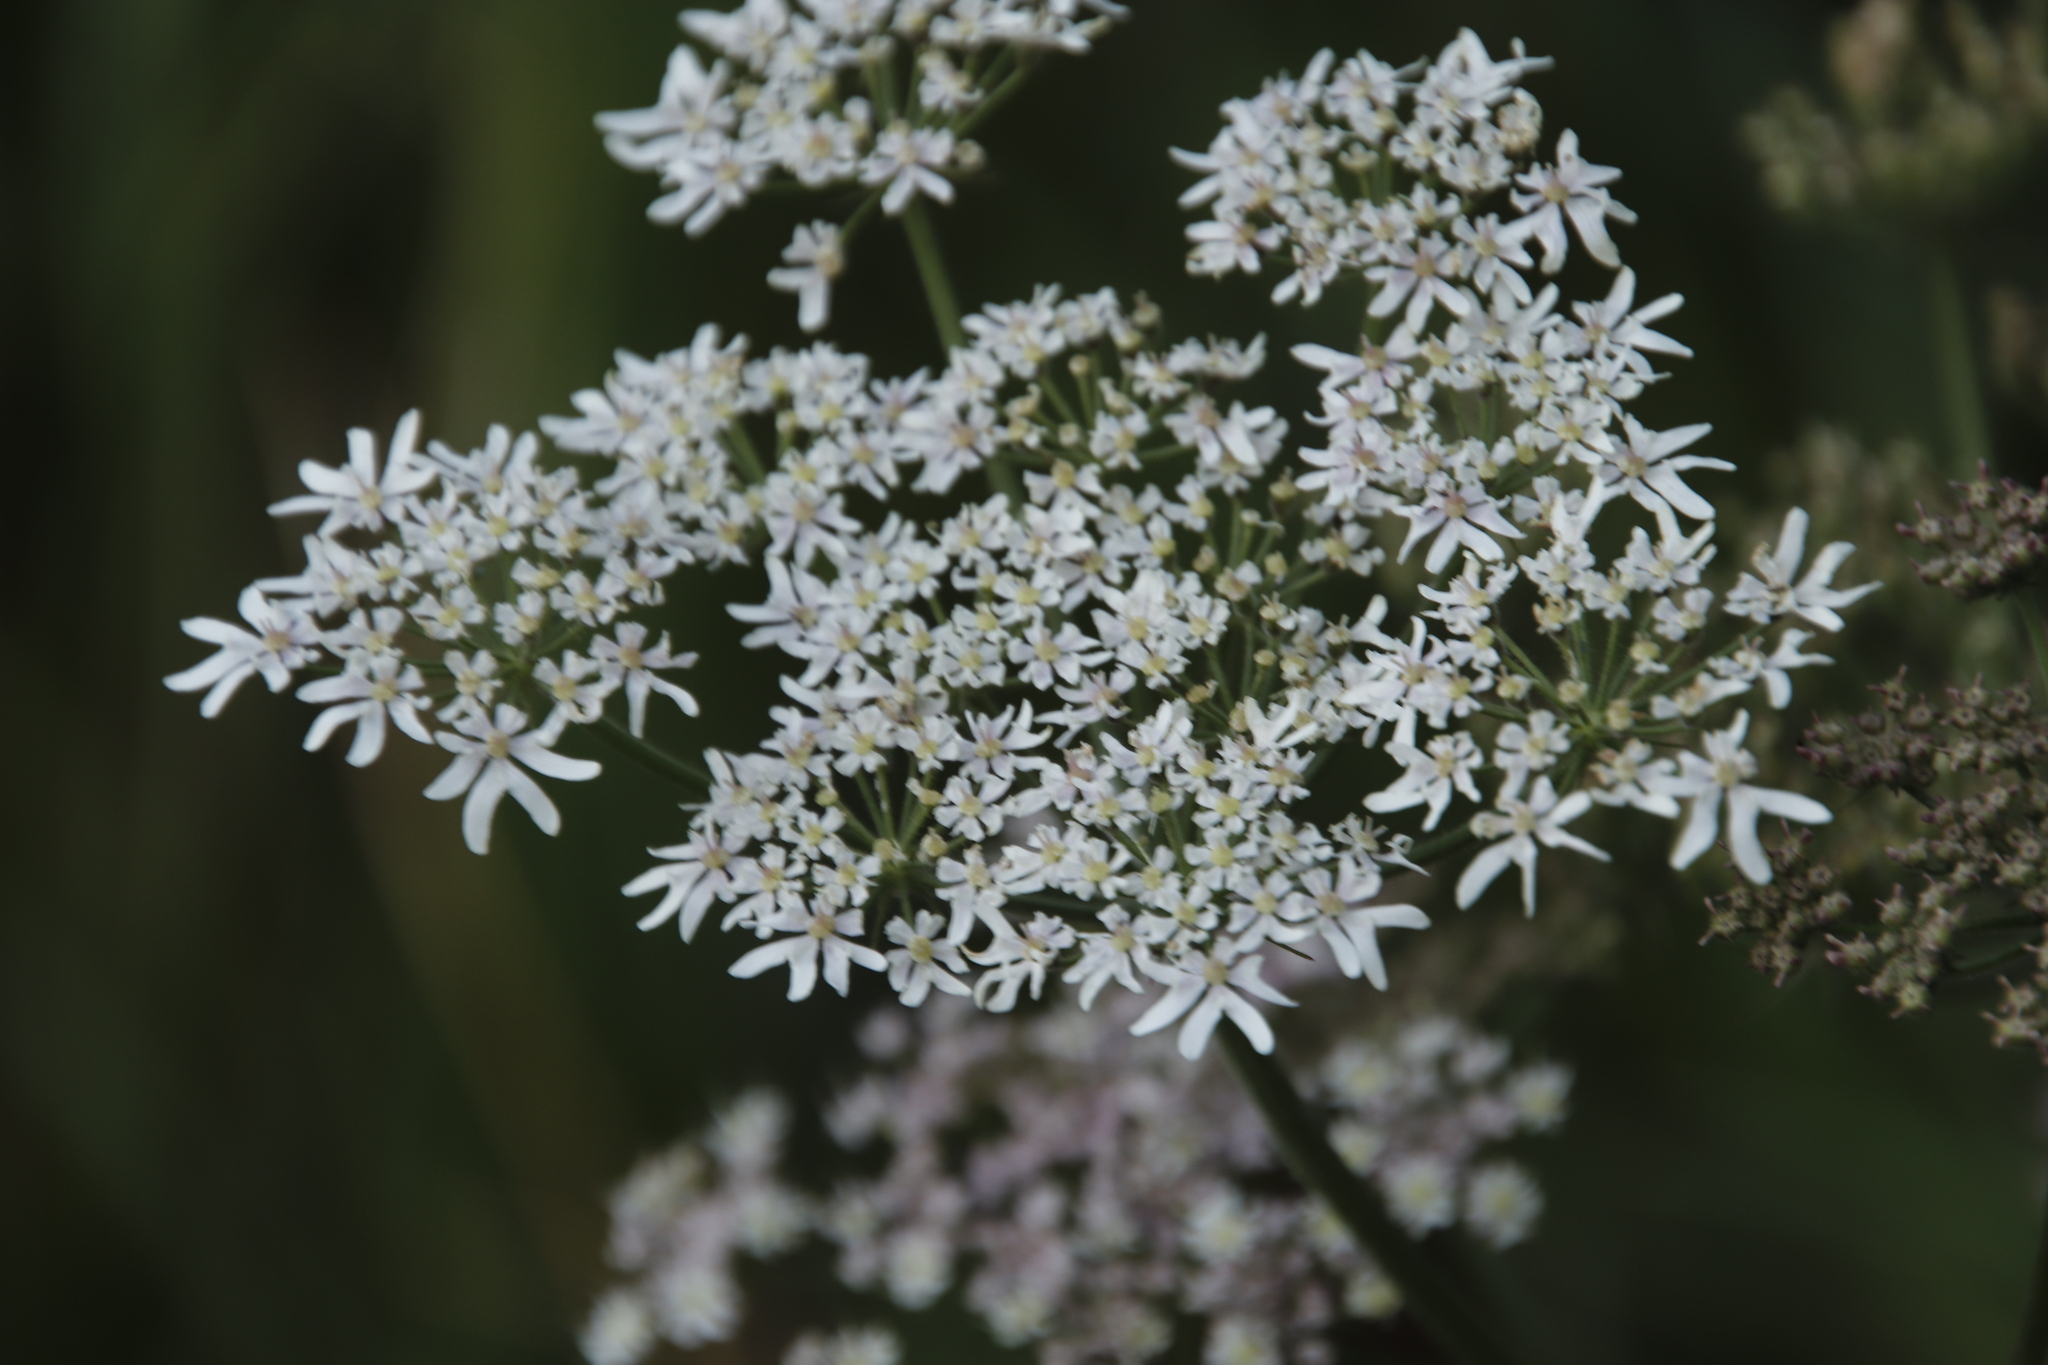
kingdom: Plantae
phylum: Tracheophyta
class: Magnoliopsida
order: Apiales
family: Apiaceae
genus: Heracleum
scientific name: Heracleum sphondylium
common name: Hogweed
